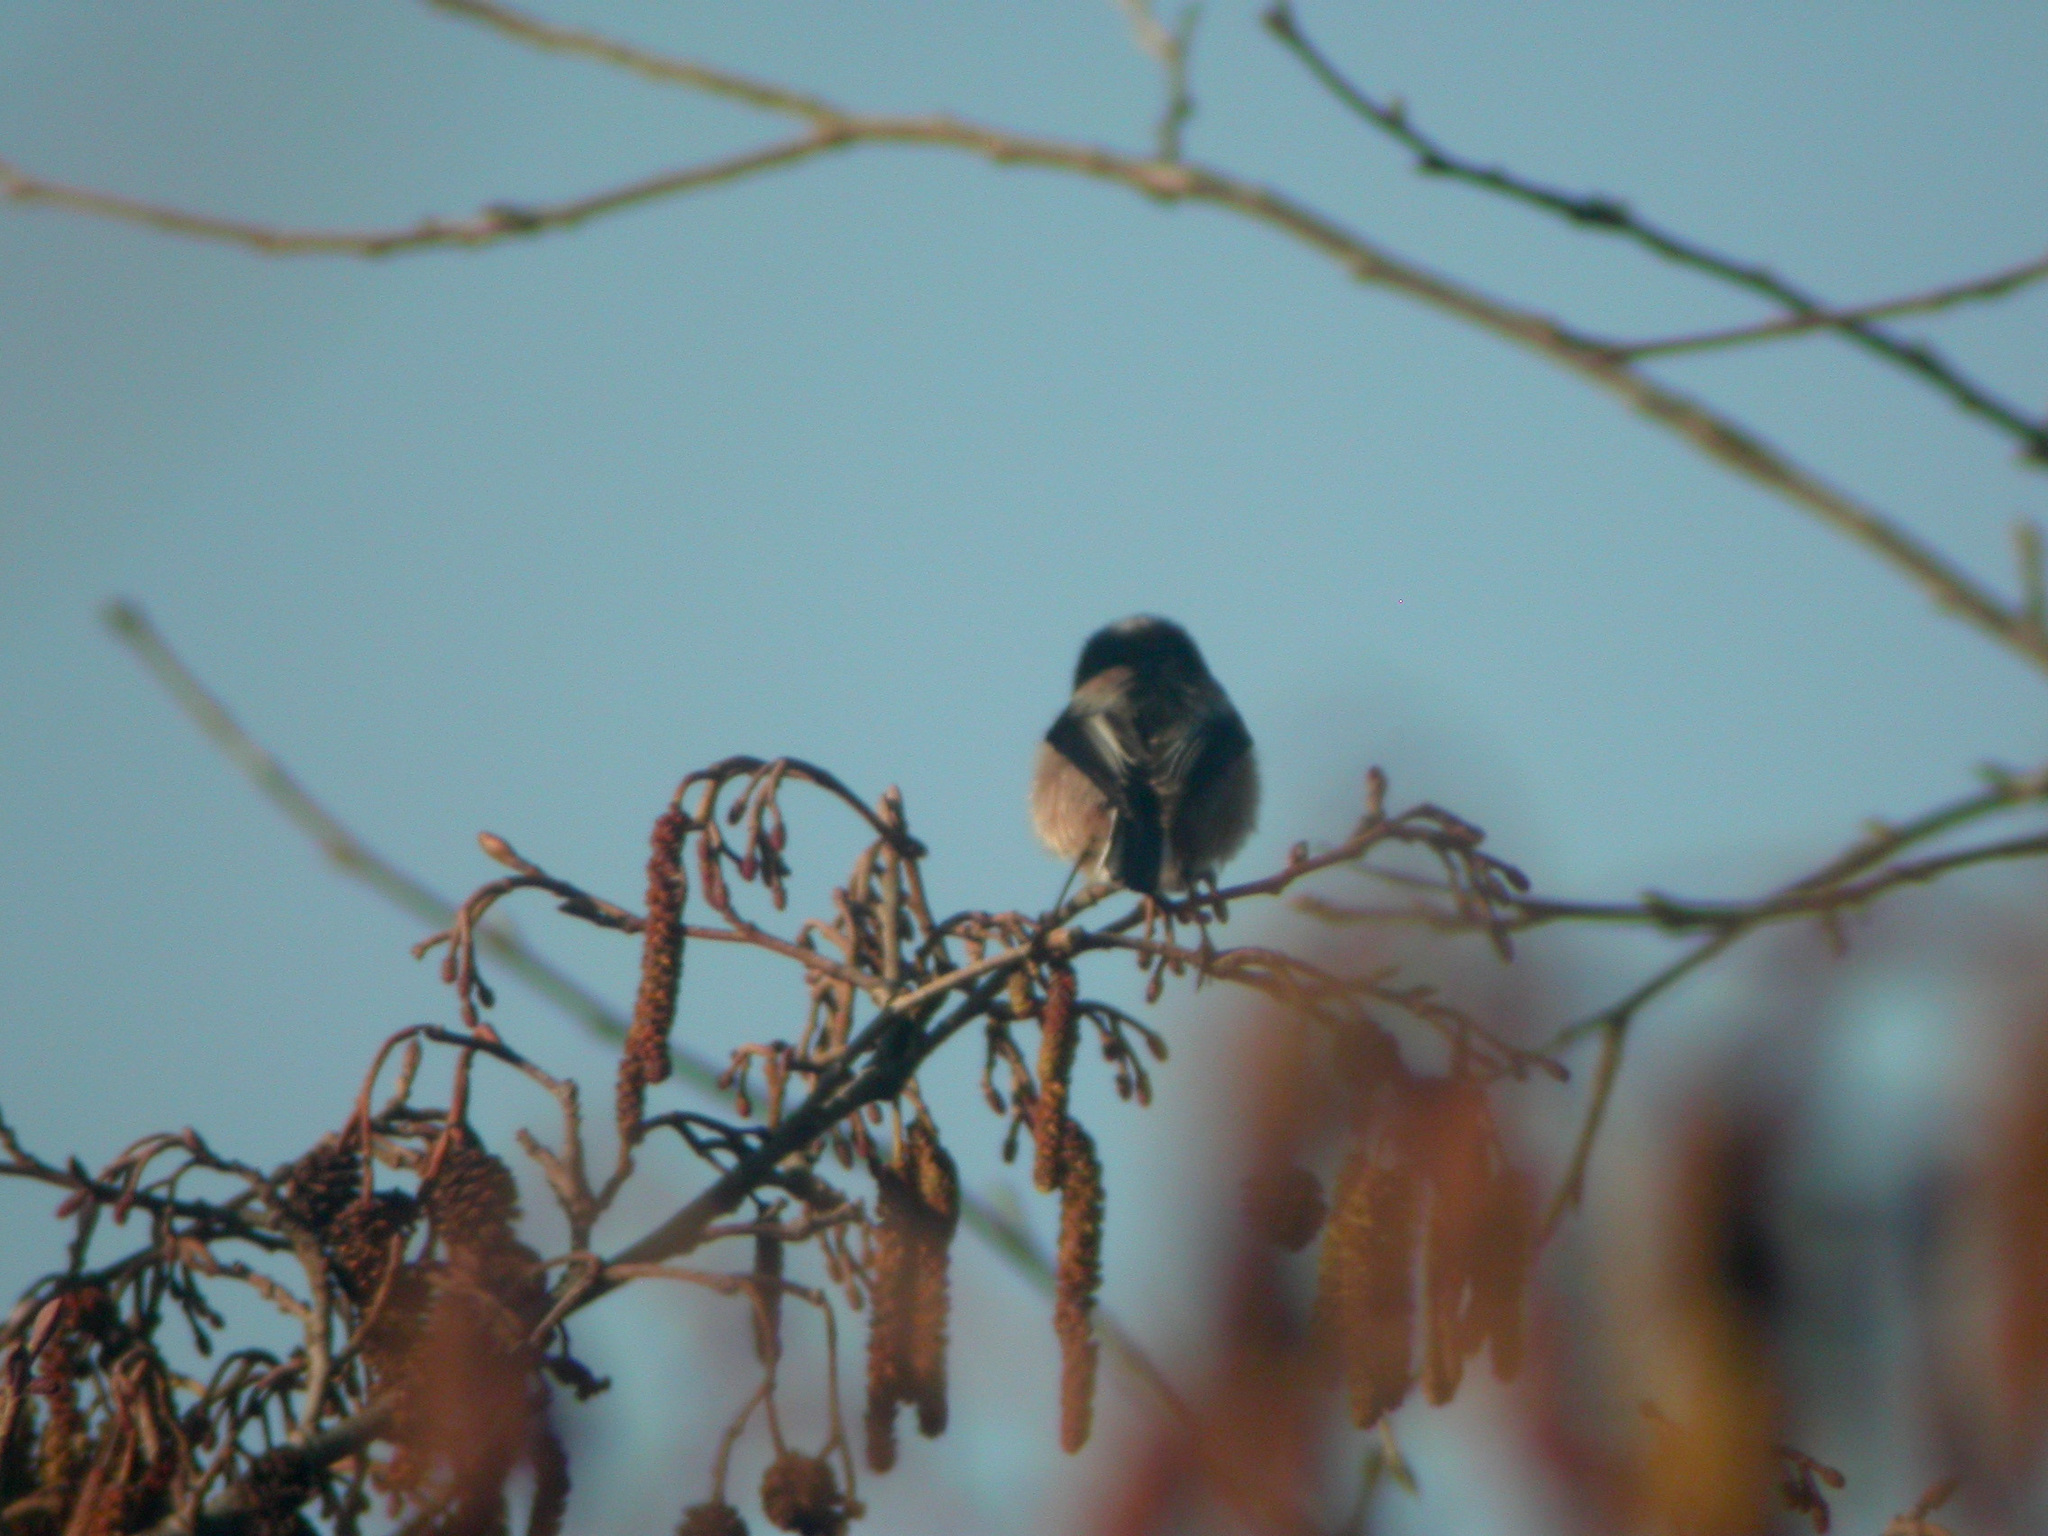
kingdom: Animalia
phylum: Chordata
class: Aves
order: Passeriformes
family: Aegithalidae
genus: Aegithalos
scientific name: Aegithalos caudatus
